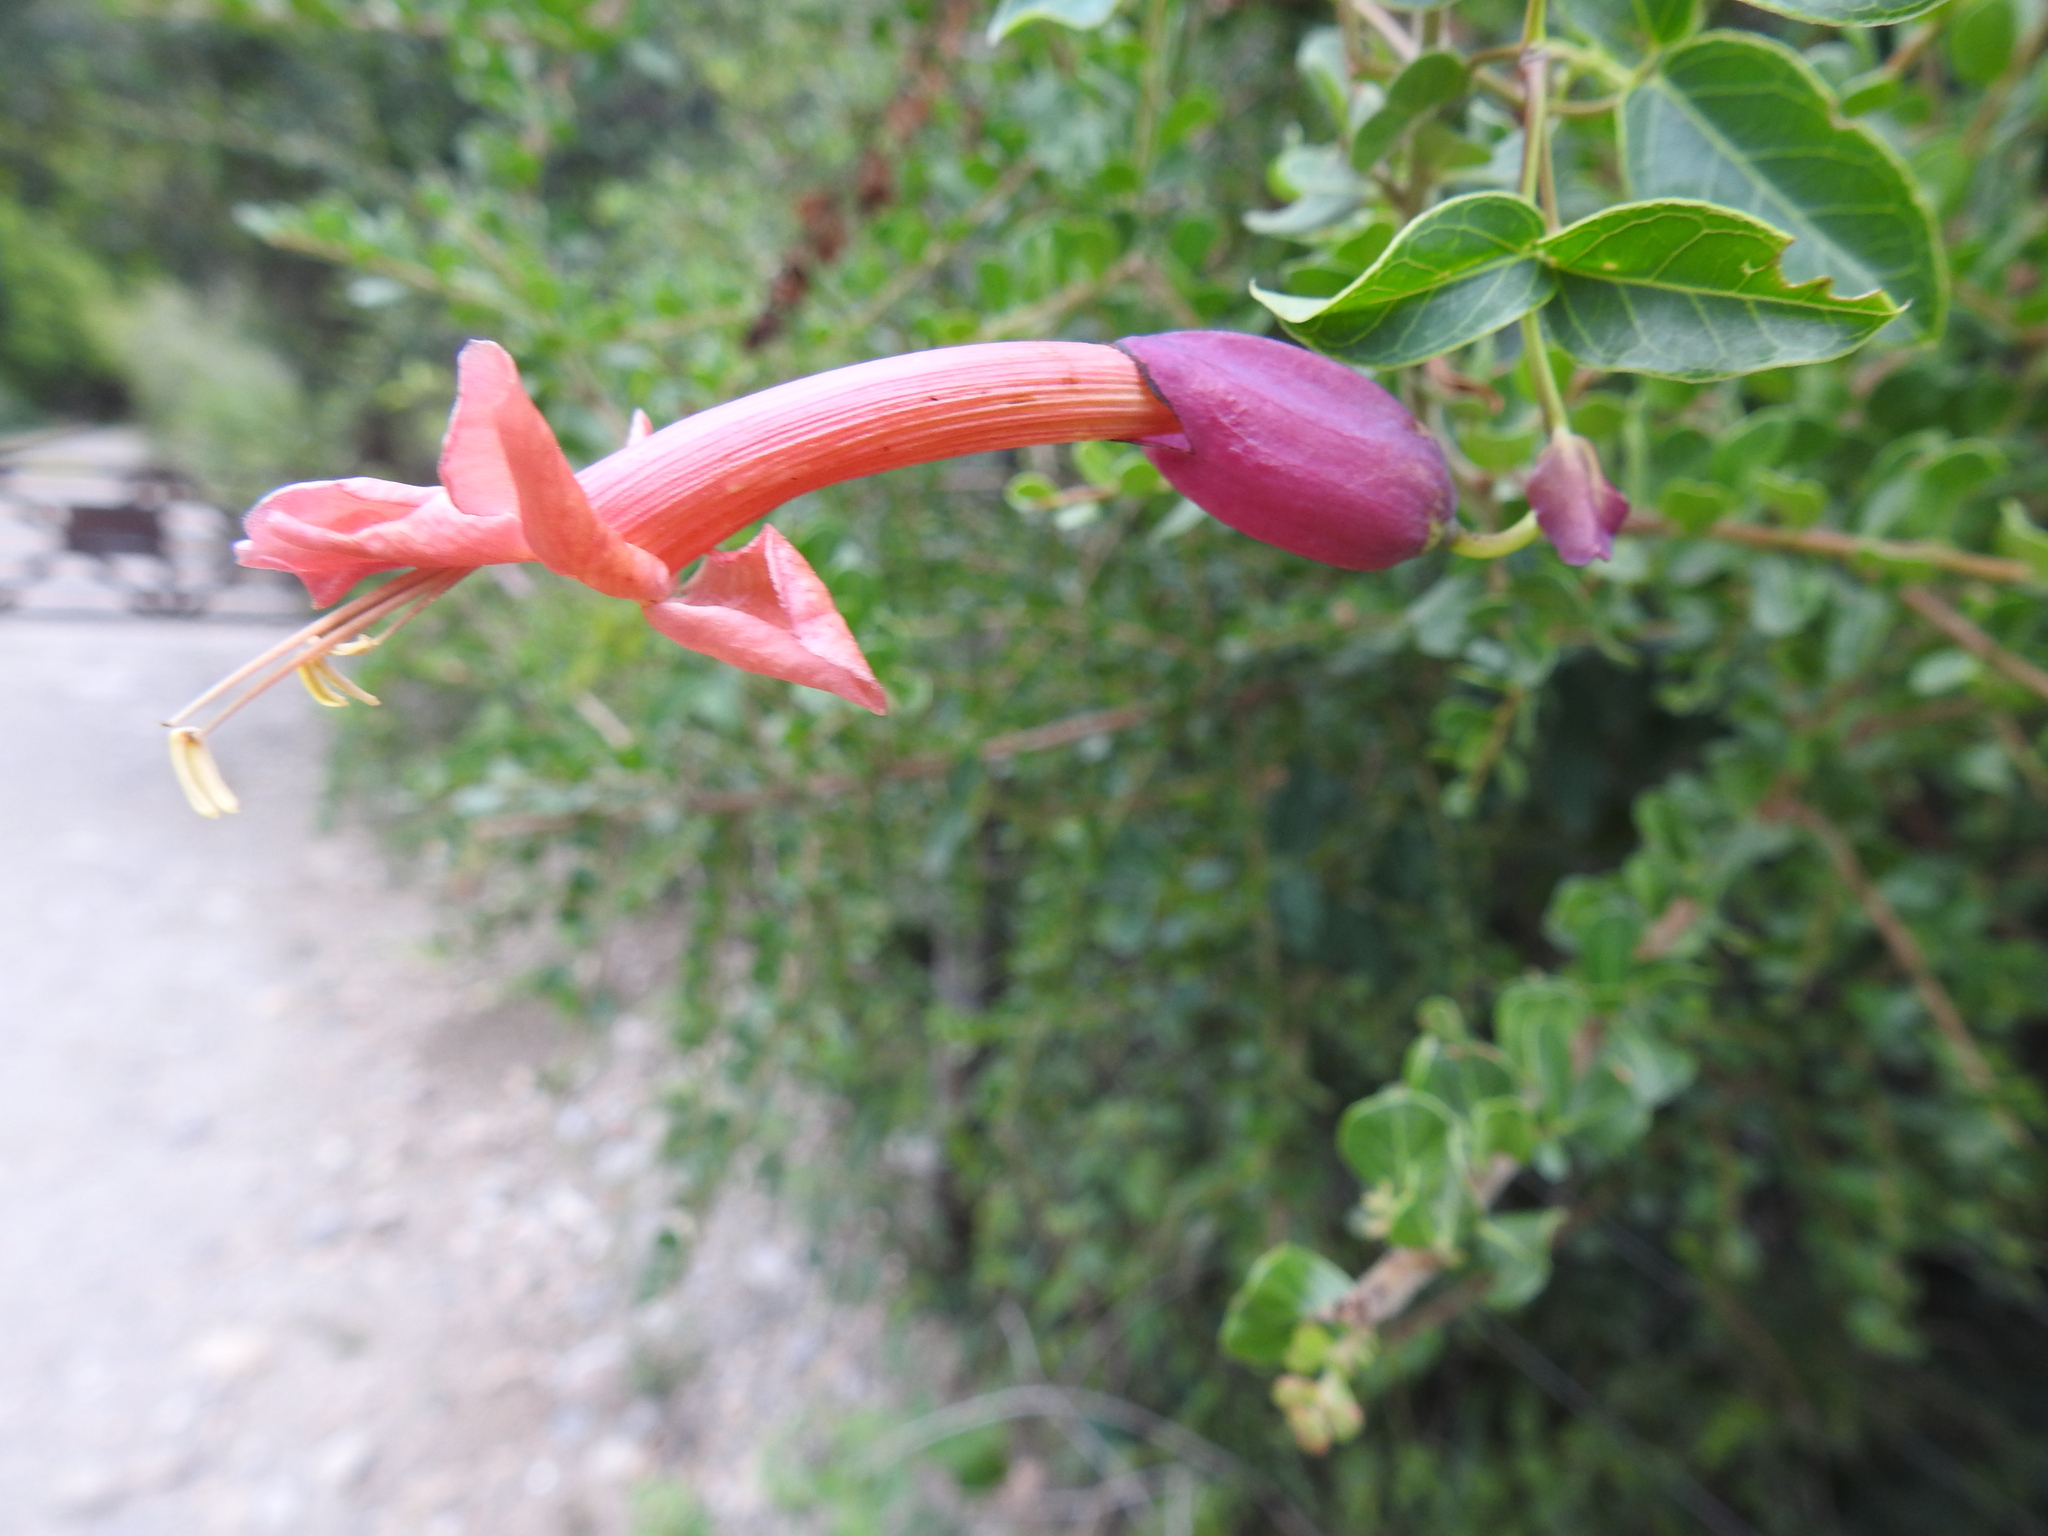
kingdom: Plantae
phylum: Tracheophyta
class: Magnoliopsida
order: Lamiales
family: Bignoniaceae
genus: Dolichandra
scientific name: Dolichandra cynanchoides
